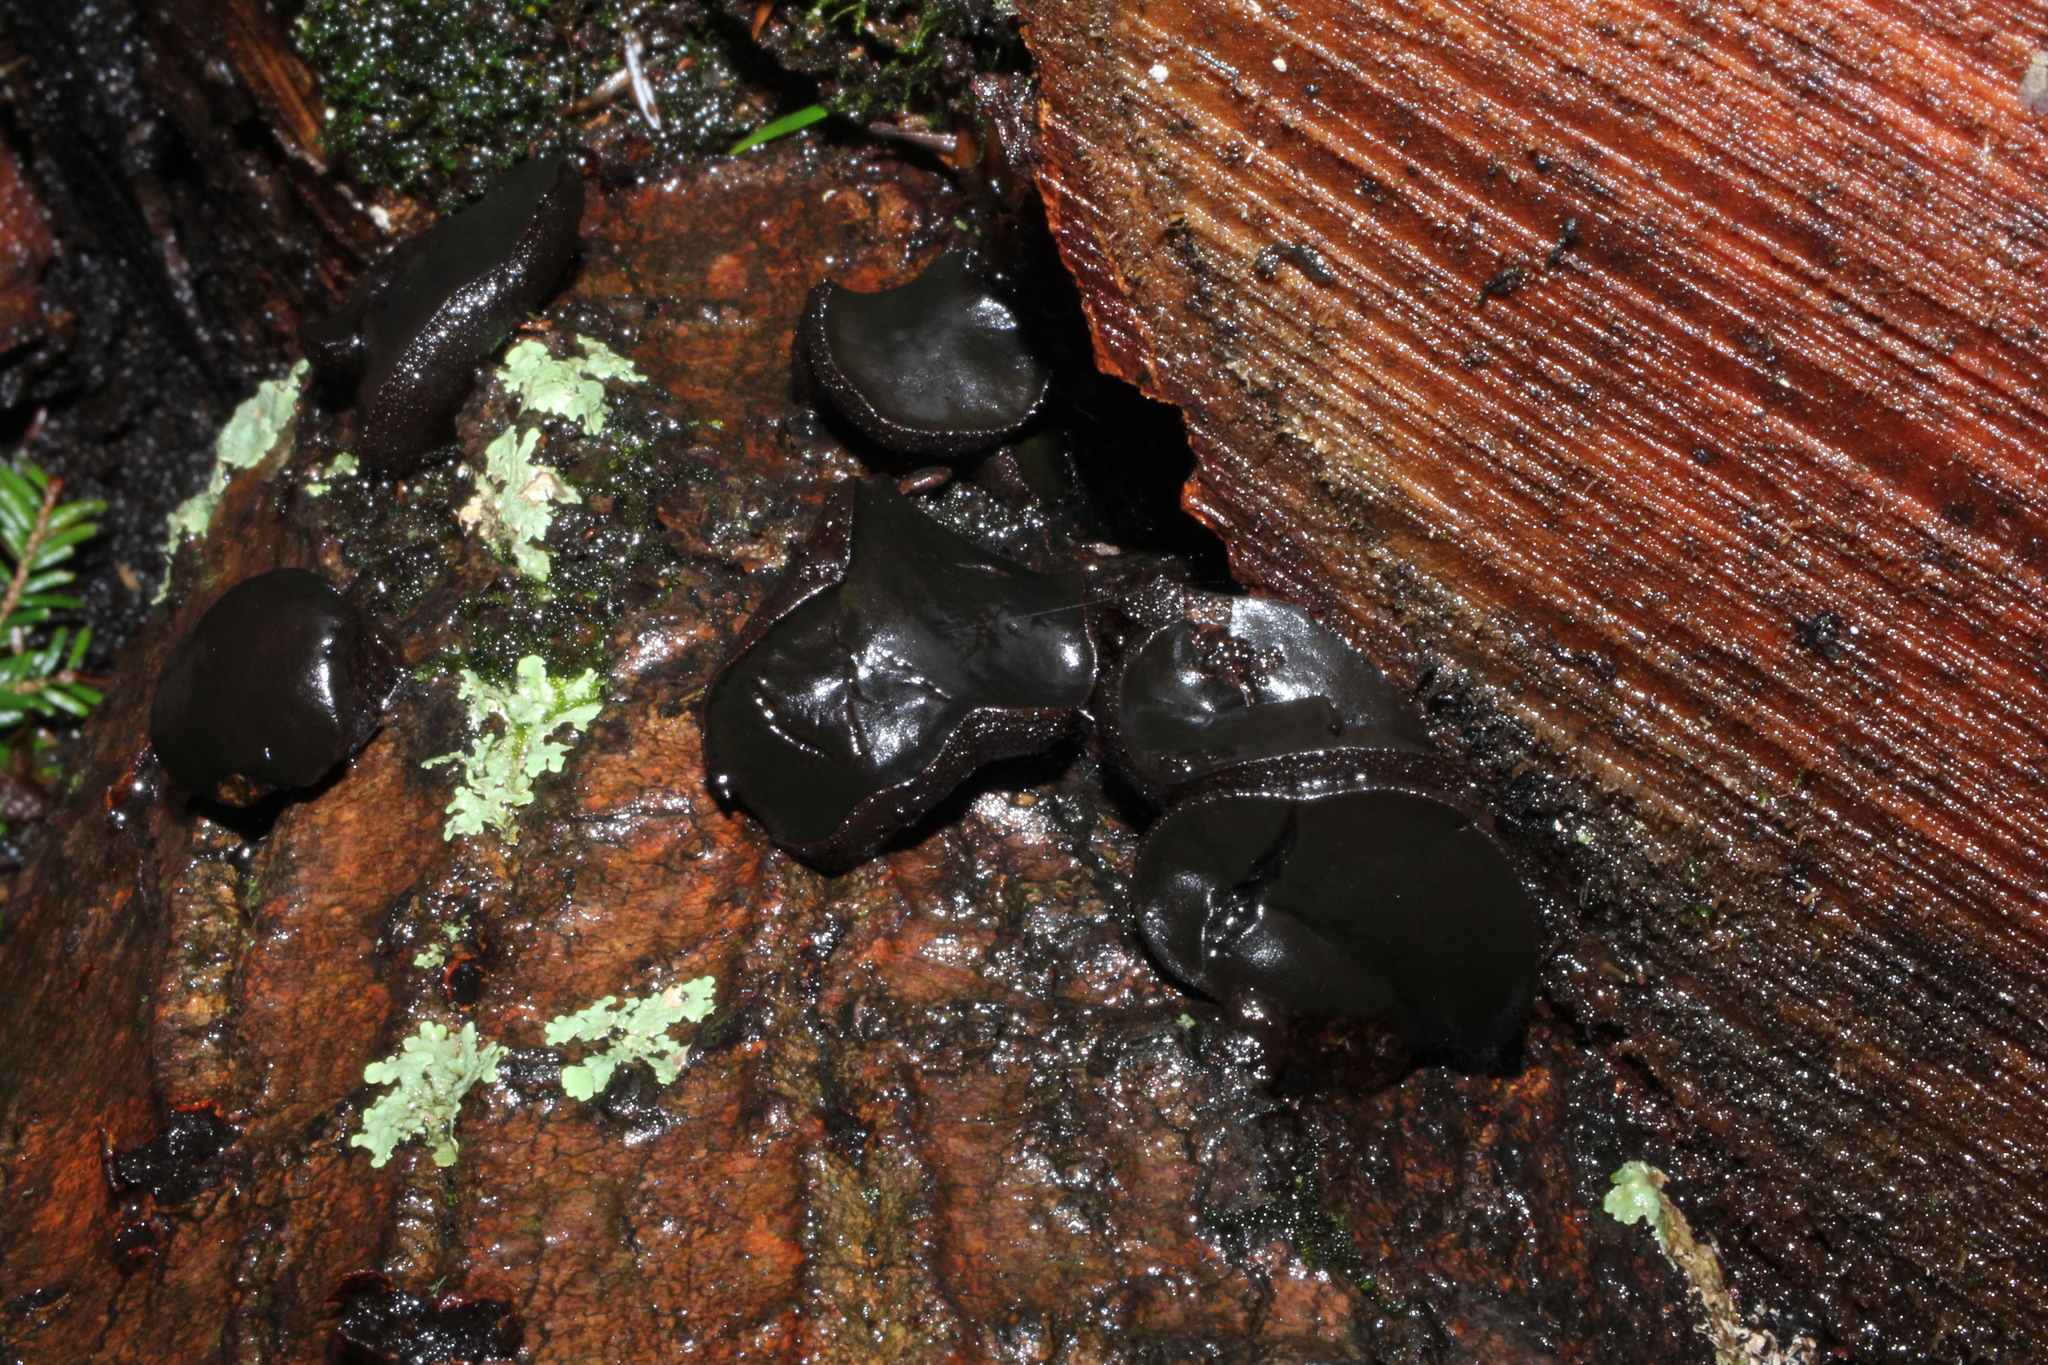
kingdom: Fungi
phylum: Ascomycota
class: Leotiomycetes
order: Phacidiales
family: Phacidiaceae
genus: Bulgaria
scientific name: Bulgaria inquinans
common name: Black bulgar
